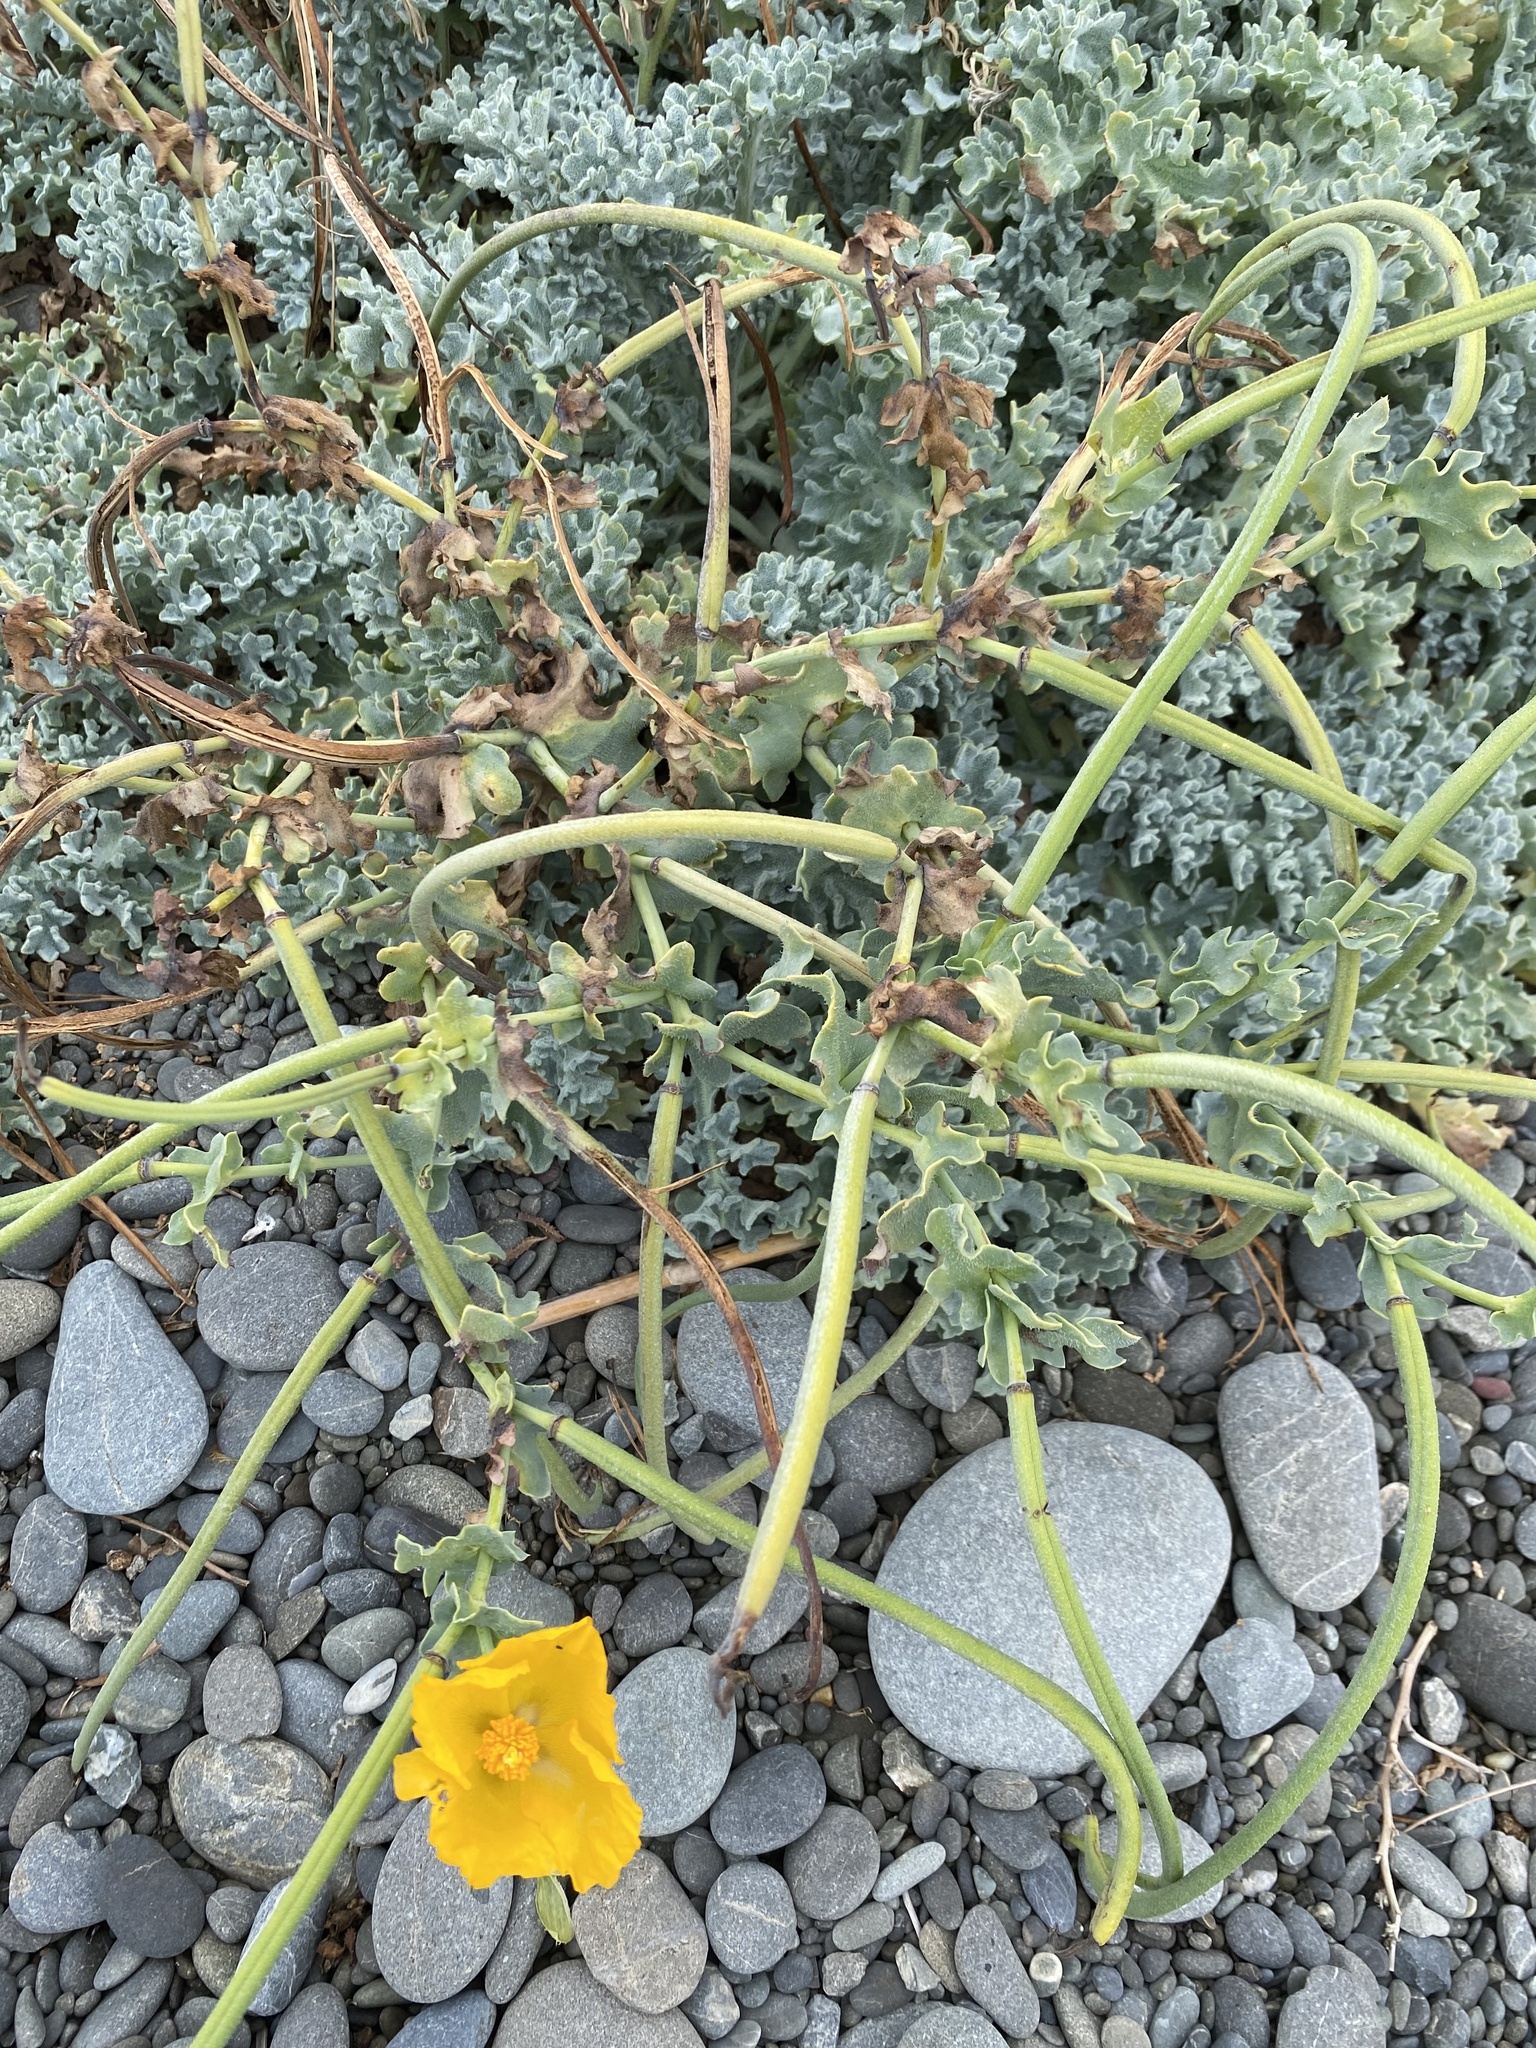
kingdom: Plantae
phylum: Tracheophyta
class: Magnoliopsida
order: Ranunculales
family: Papaveraceae
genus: Glaucium
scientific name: Glaucium flavum
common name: Yellow horned-poppy
